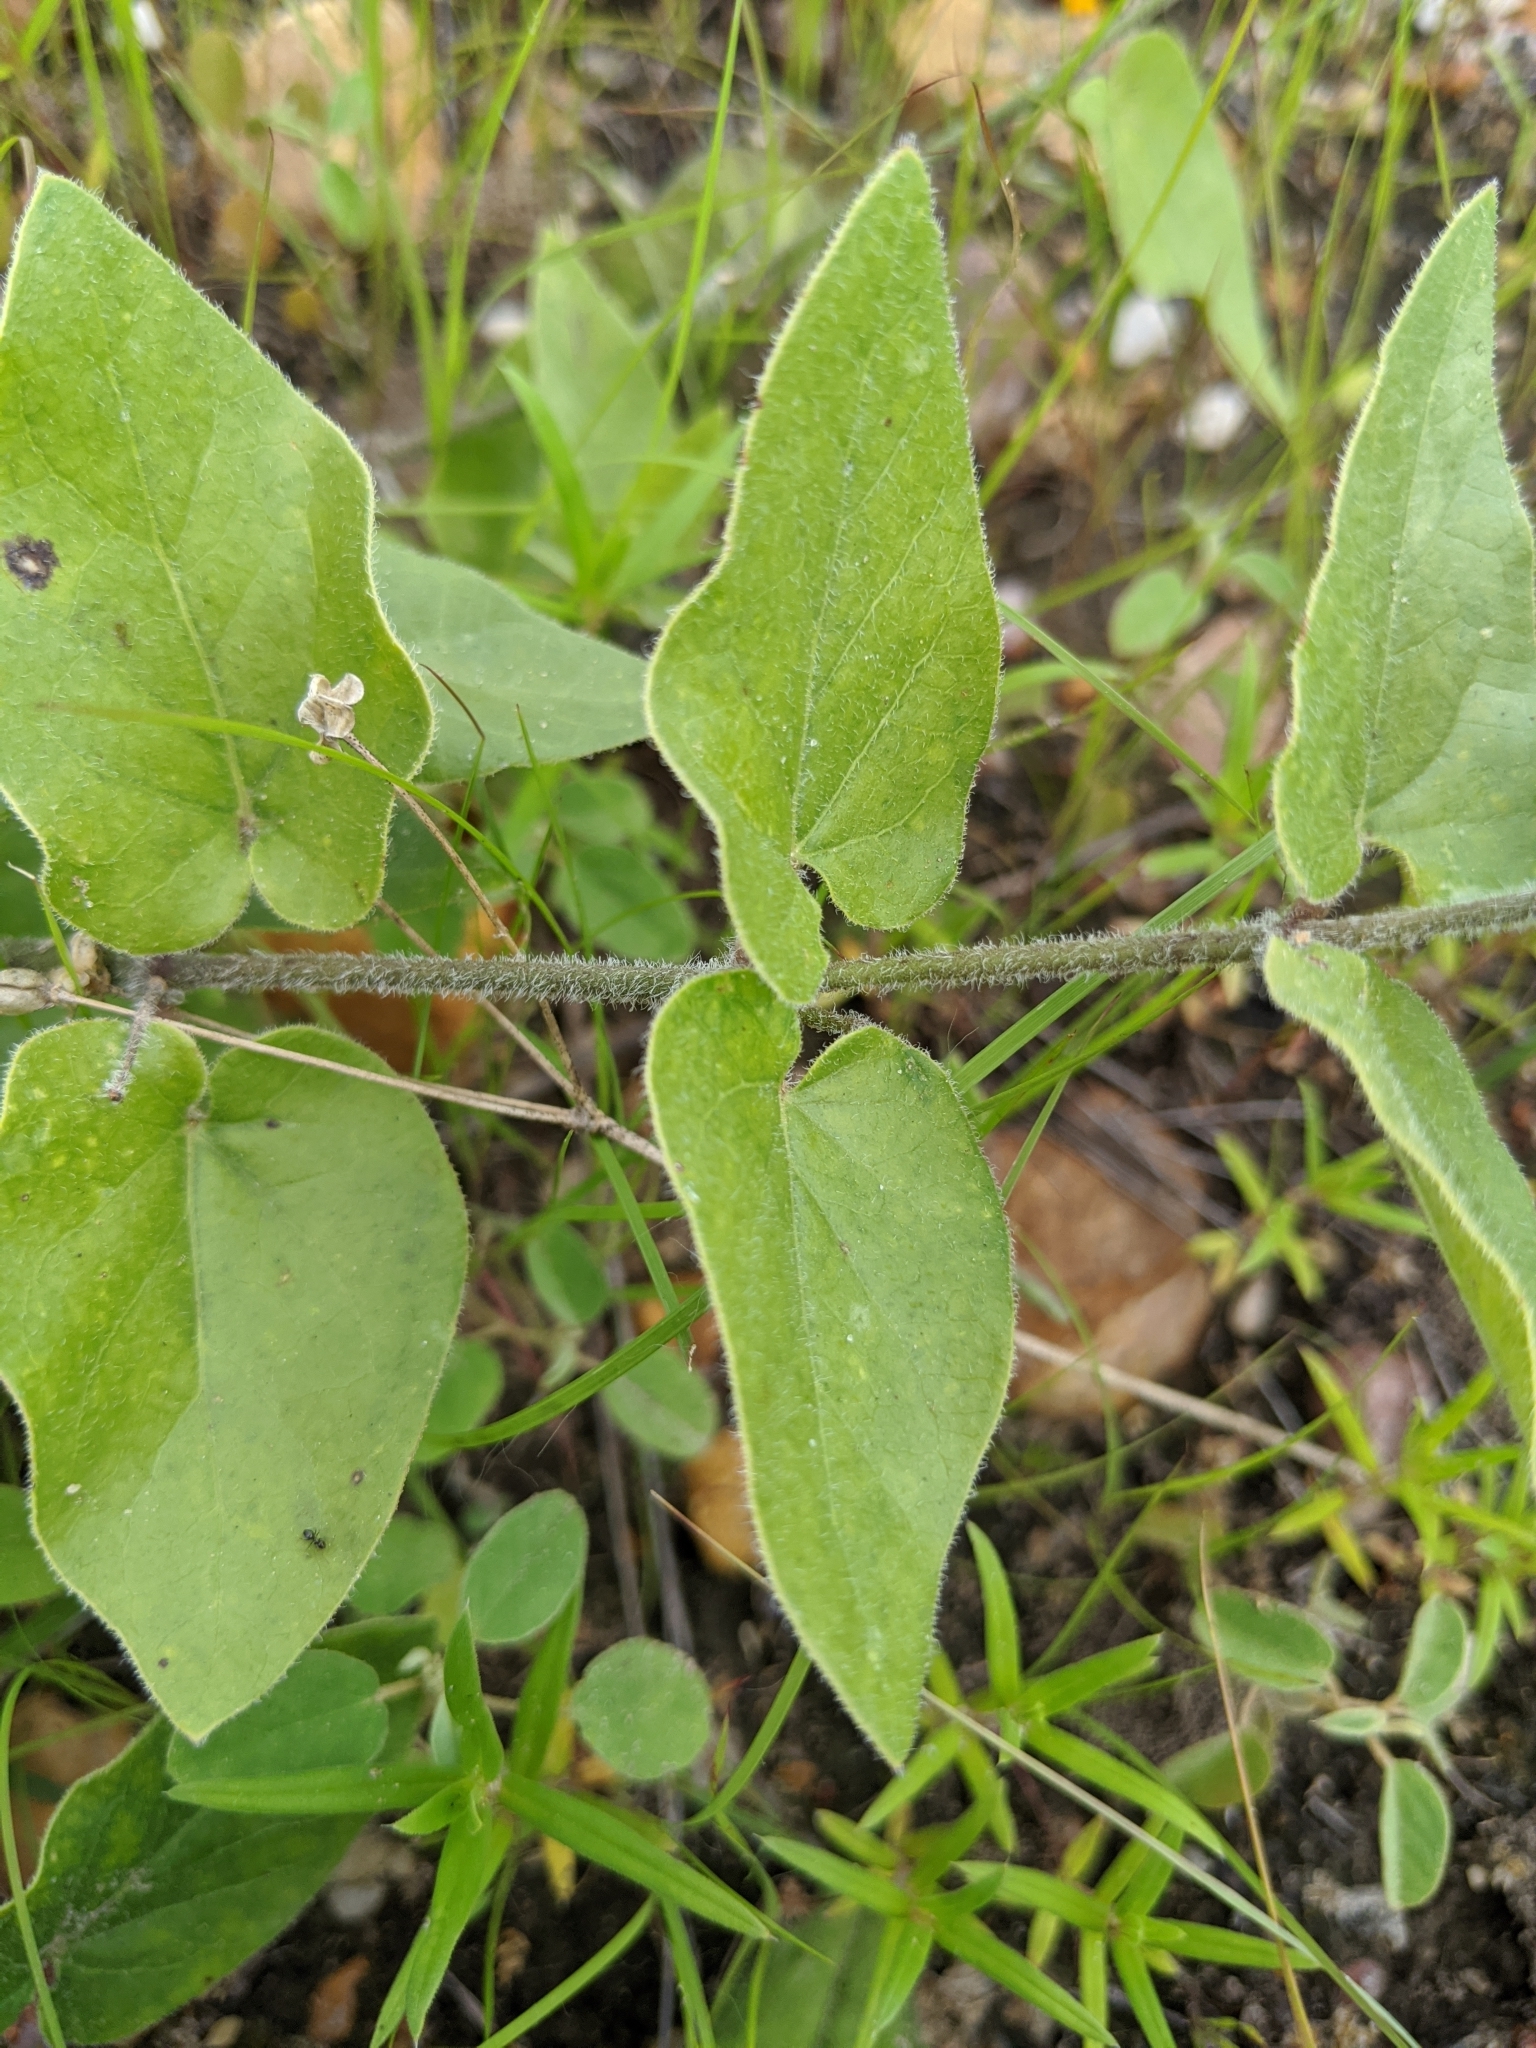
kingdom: Plantae
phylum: Tracheophyta
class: Magnoliopsida
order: Gentianales
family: Apocynaceae
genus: Matelea
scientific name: Matelea cynanchoides
